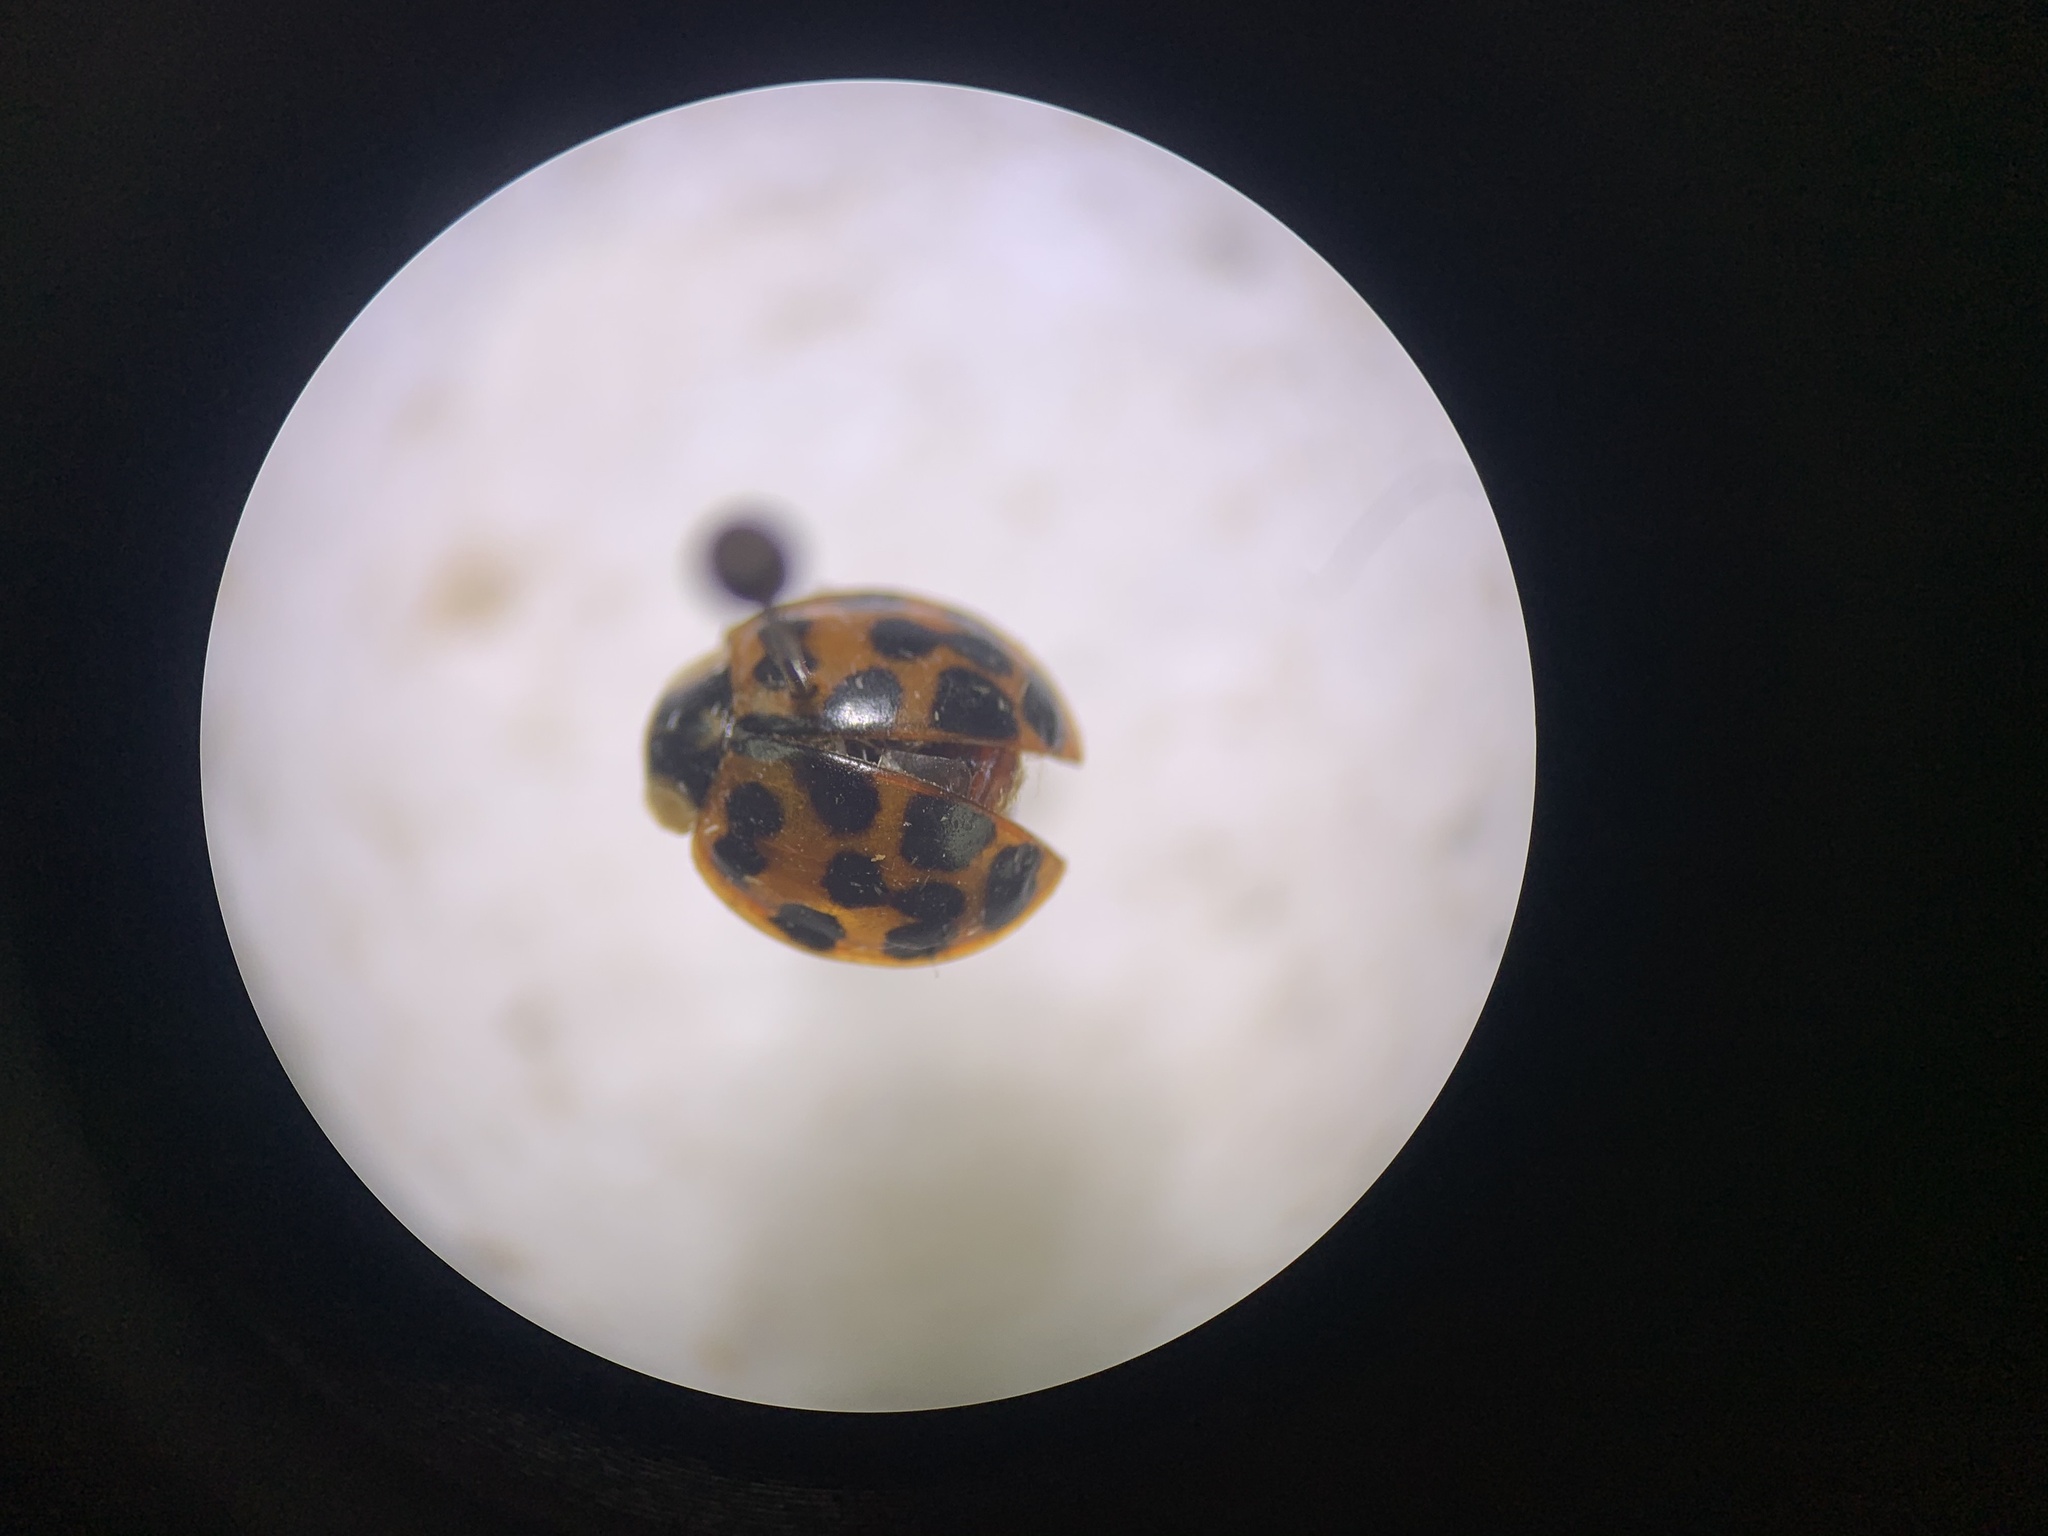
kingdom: Animalia
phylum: Arthropoda
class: Insecta
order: Coleoptera
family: Coccinellidae
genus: Harmonia
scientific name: Harmonia axyridis
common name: Harlequin ladybird
